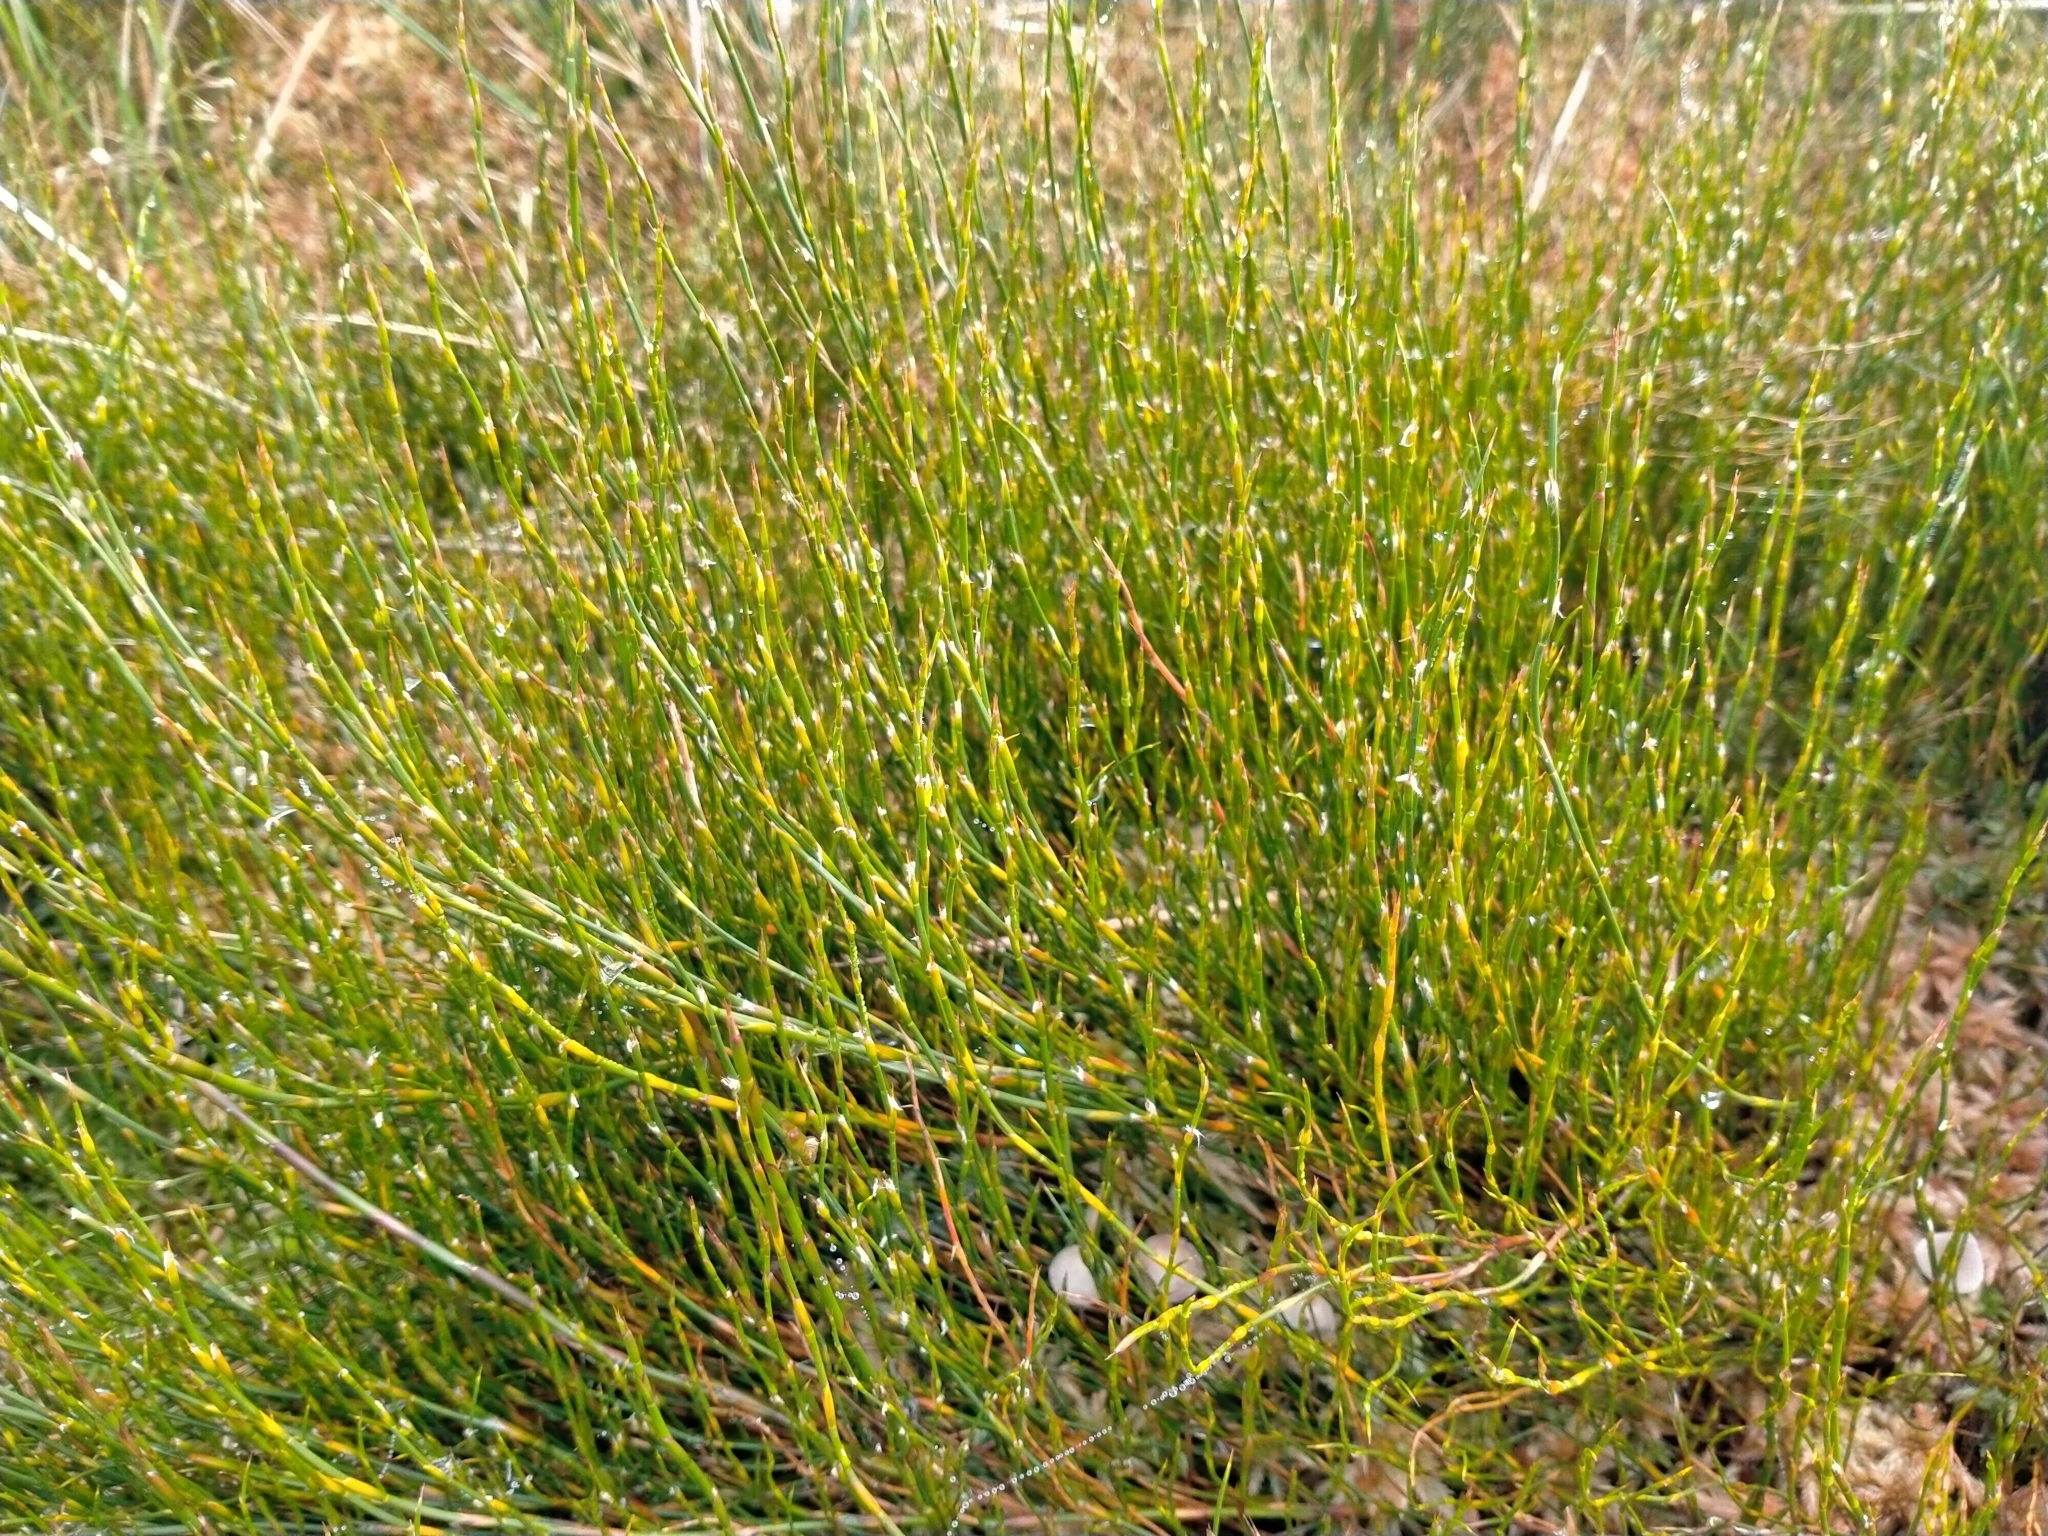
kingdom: Plantae
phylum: Tracheophyta
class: Liliopsida
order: Poales
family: Restionaceae
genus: Empodisma
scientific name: Empodisma minus
